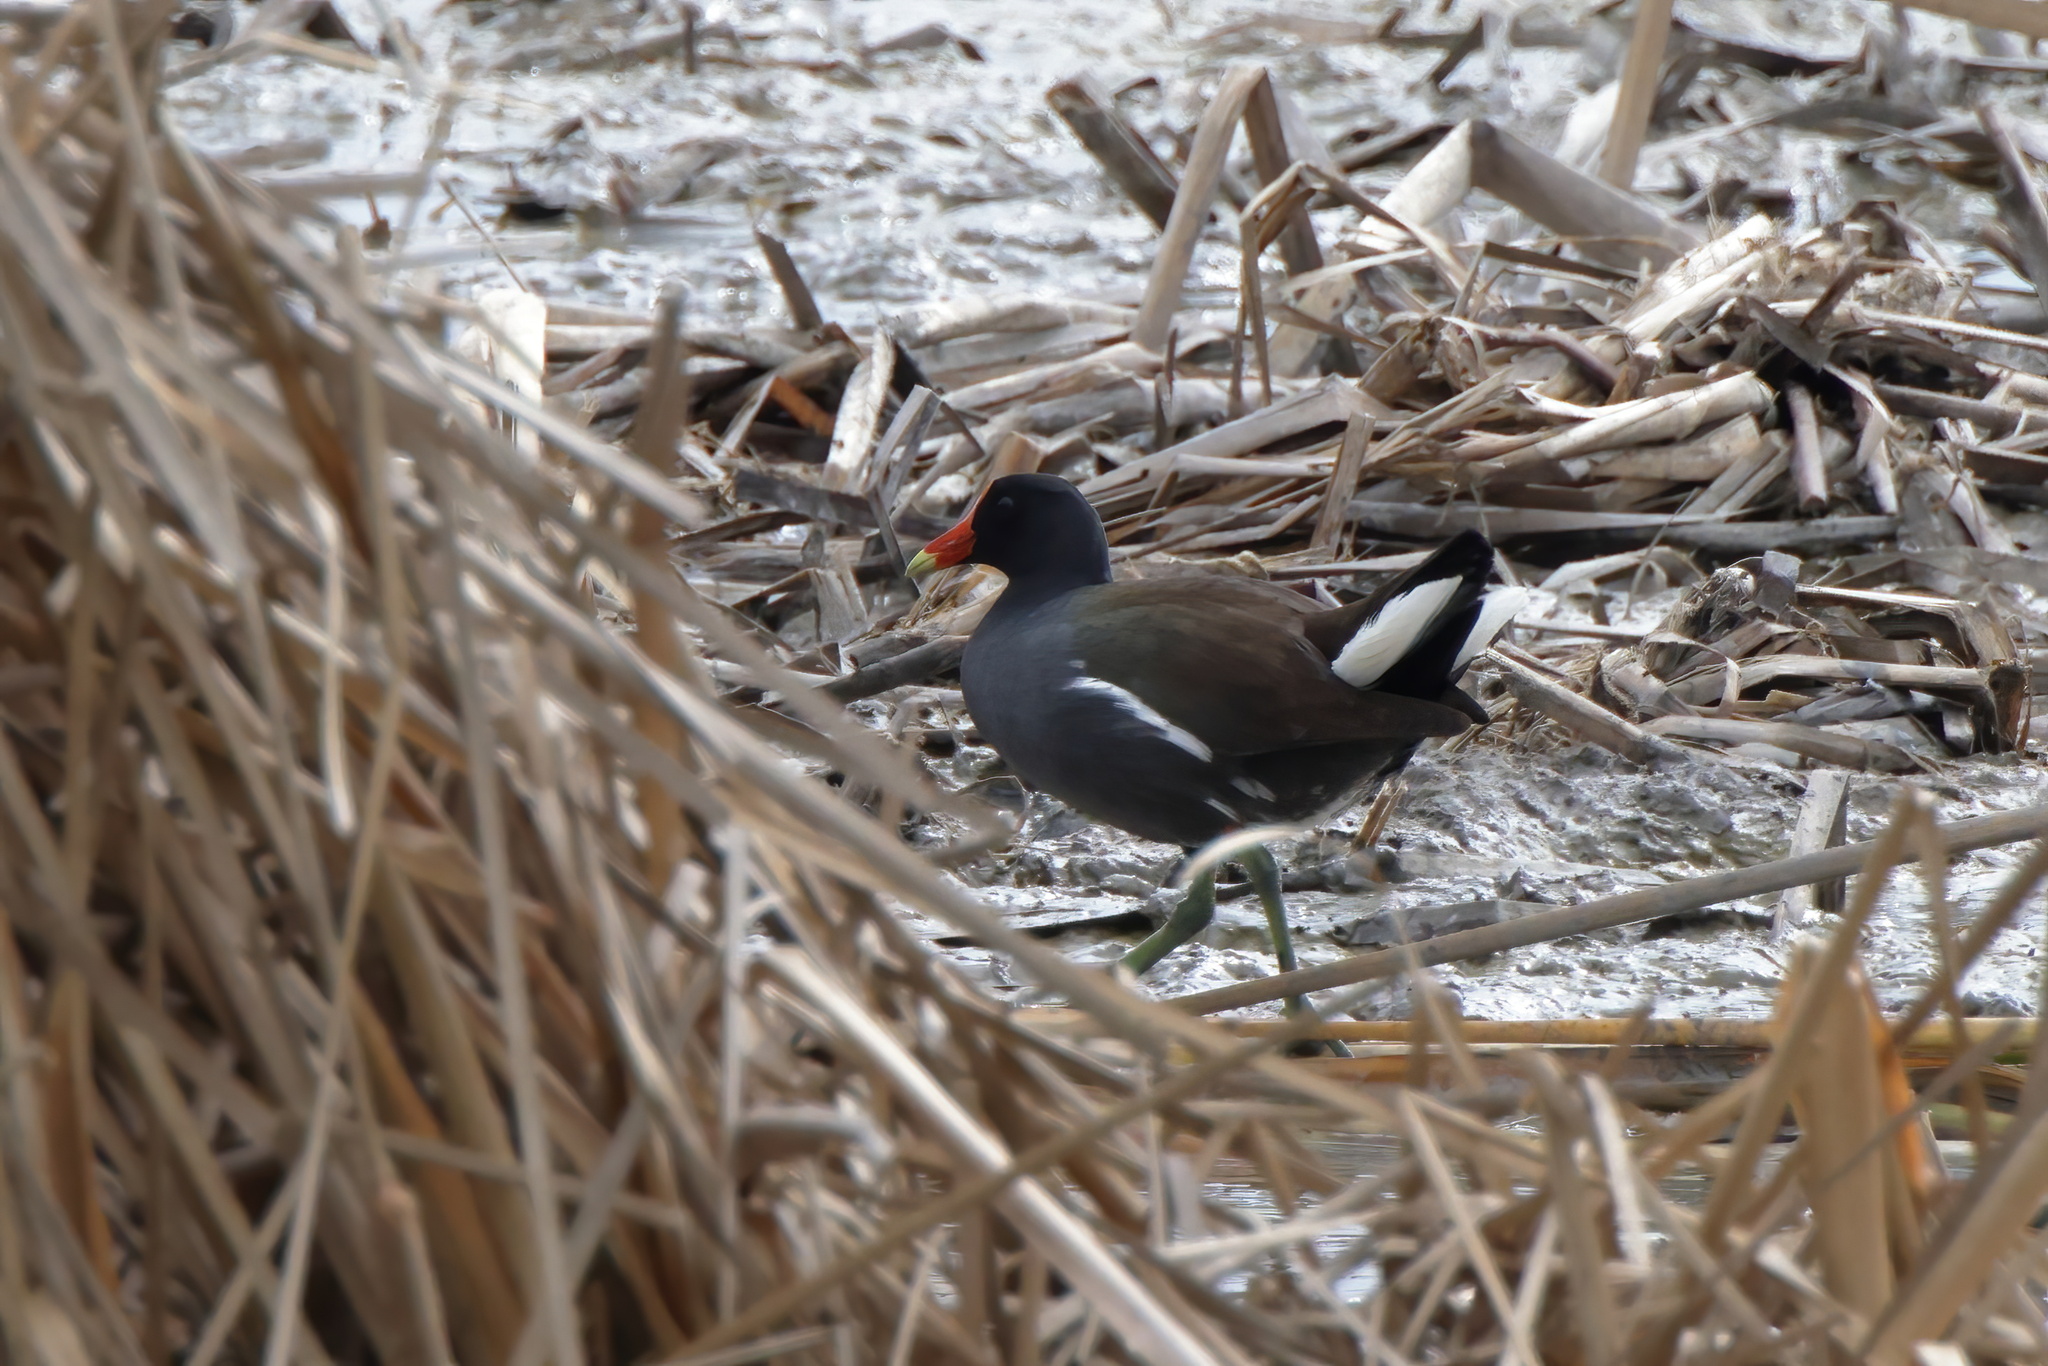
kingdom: Animalia
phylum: Chordata
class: Aves
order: Gruiformes
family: Rallidae
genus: Gallinula
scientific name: Gallinula chloropus
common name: Common moorhen
